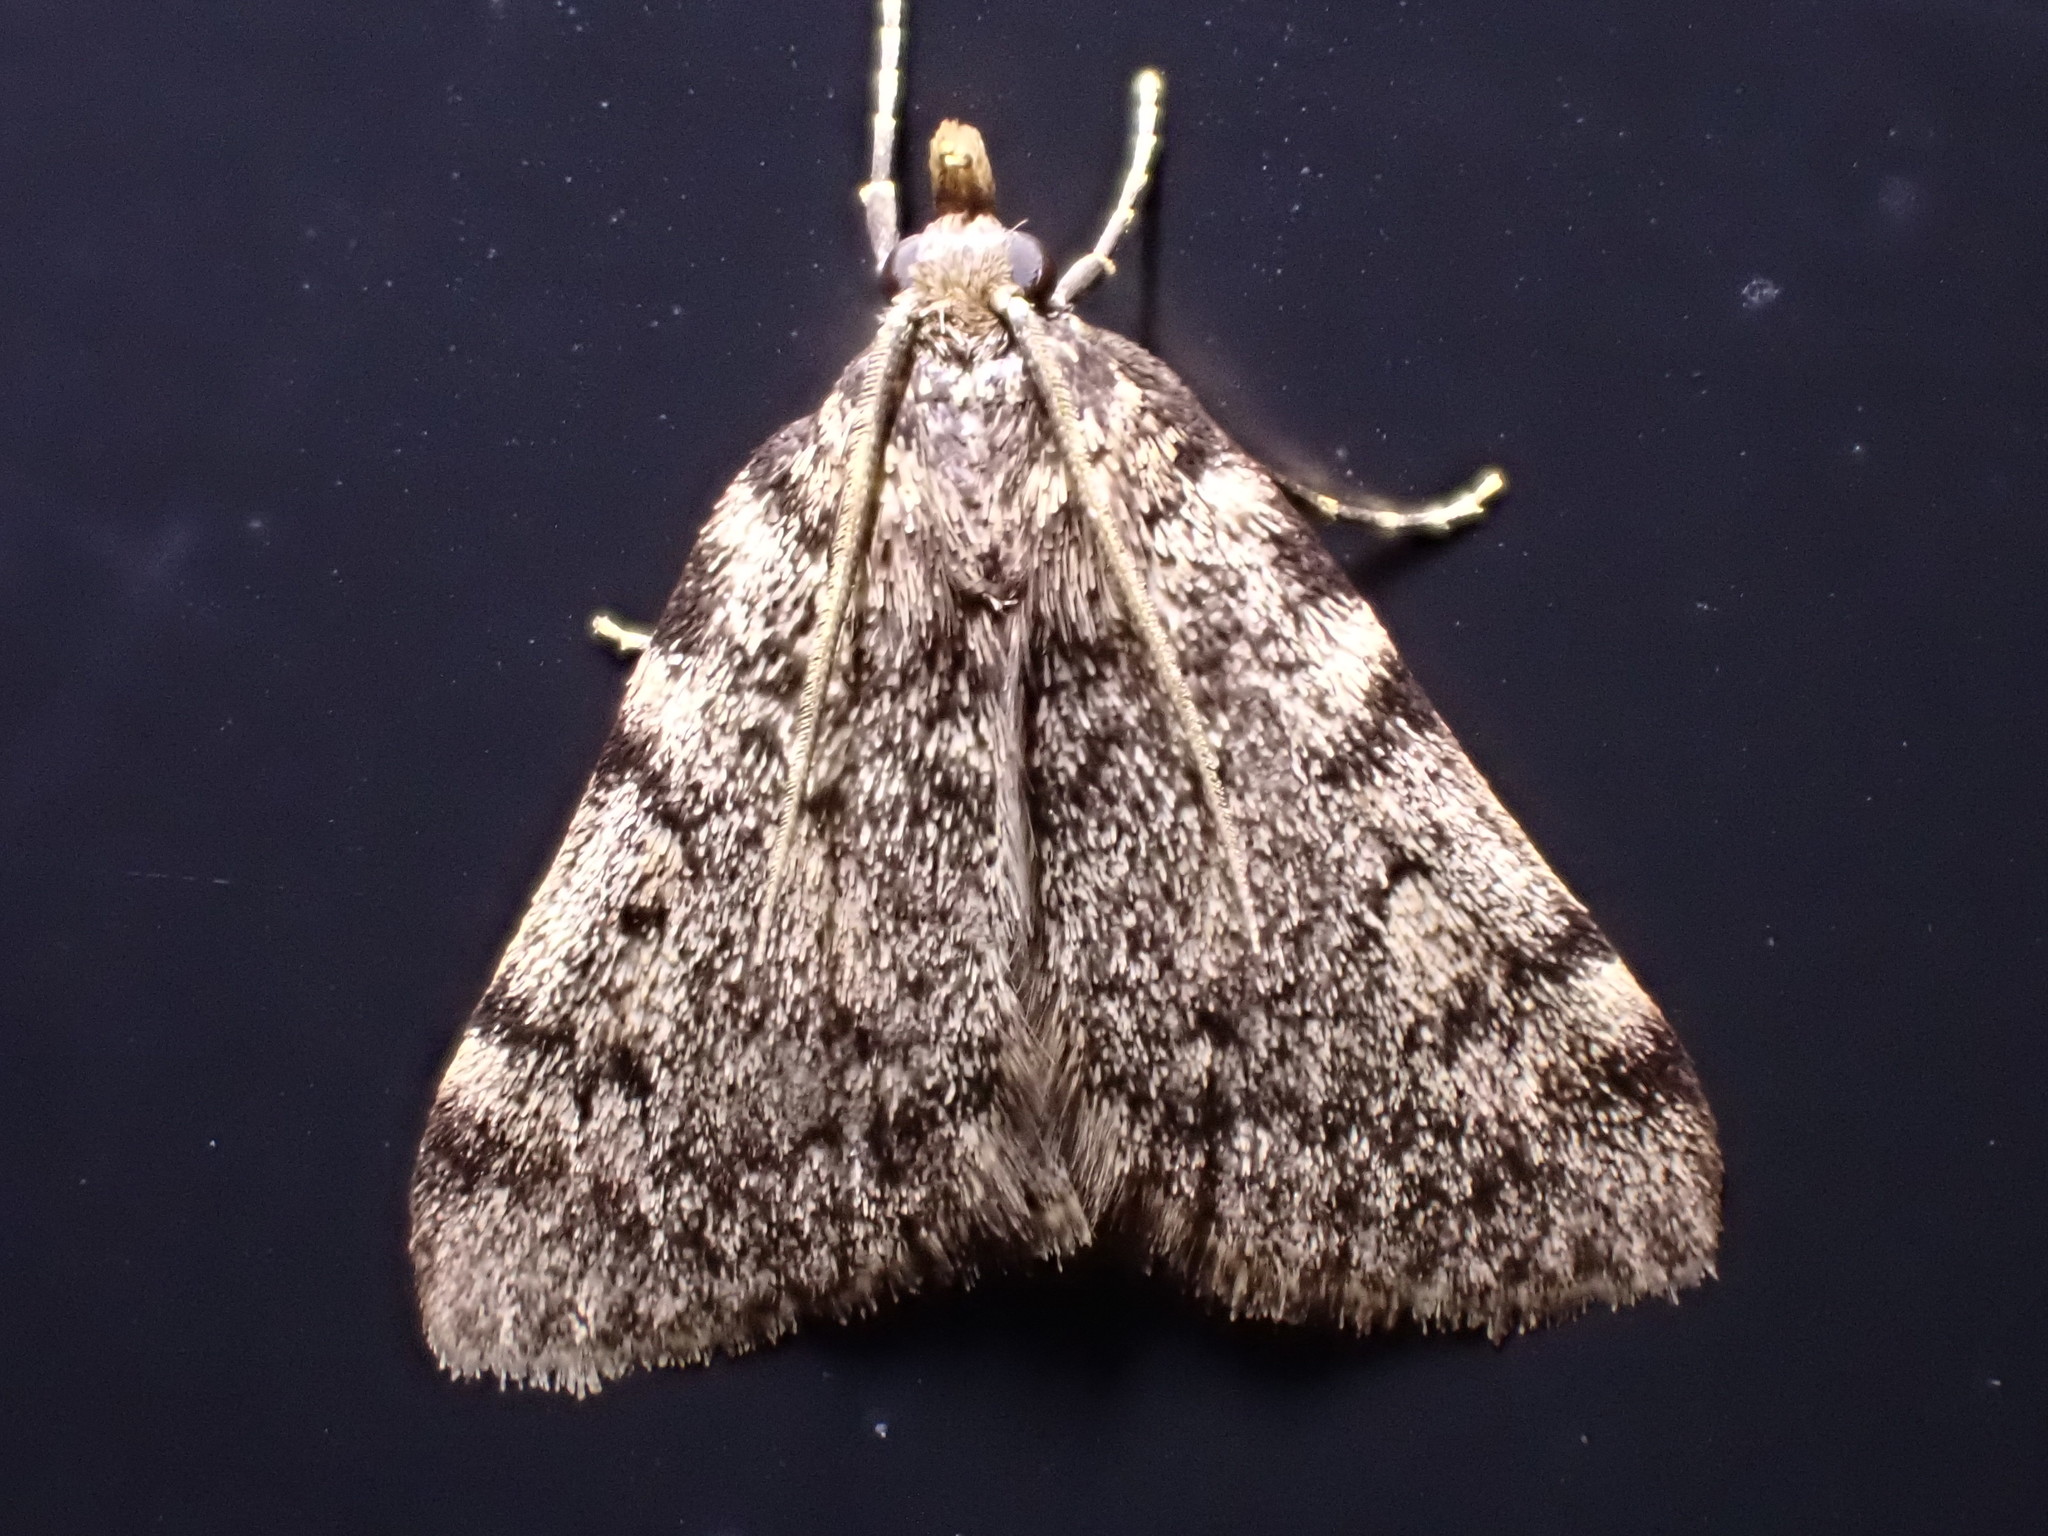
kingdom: Animalia
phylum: Arthropoda
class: Insecta
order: Lepidoptera
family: Pyralidae
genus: Aglossa
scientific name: Aglossa pinguinalis
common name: Large tabby
